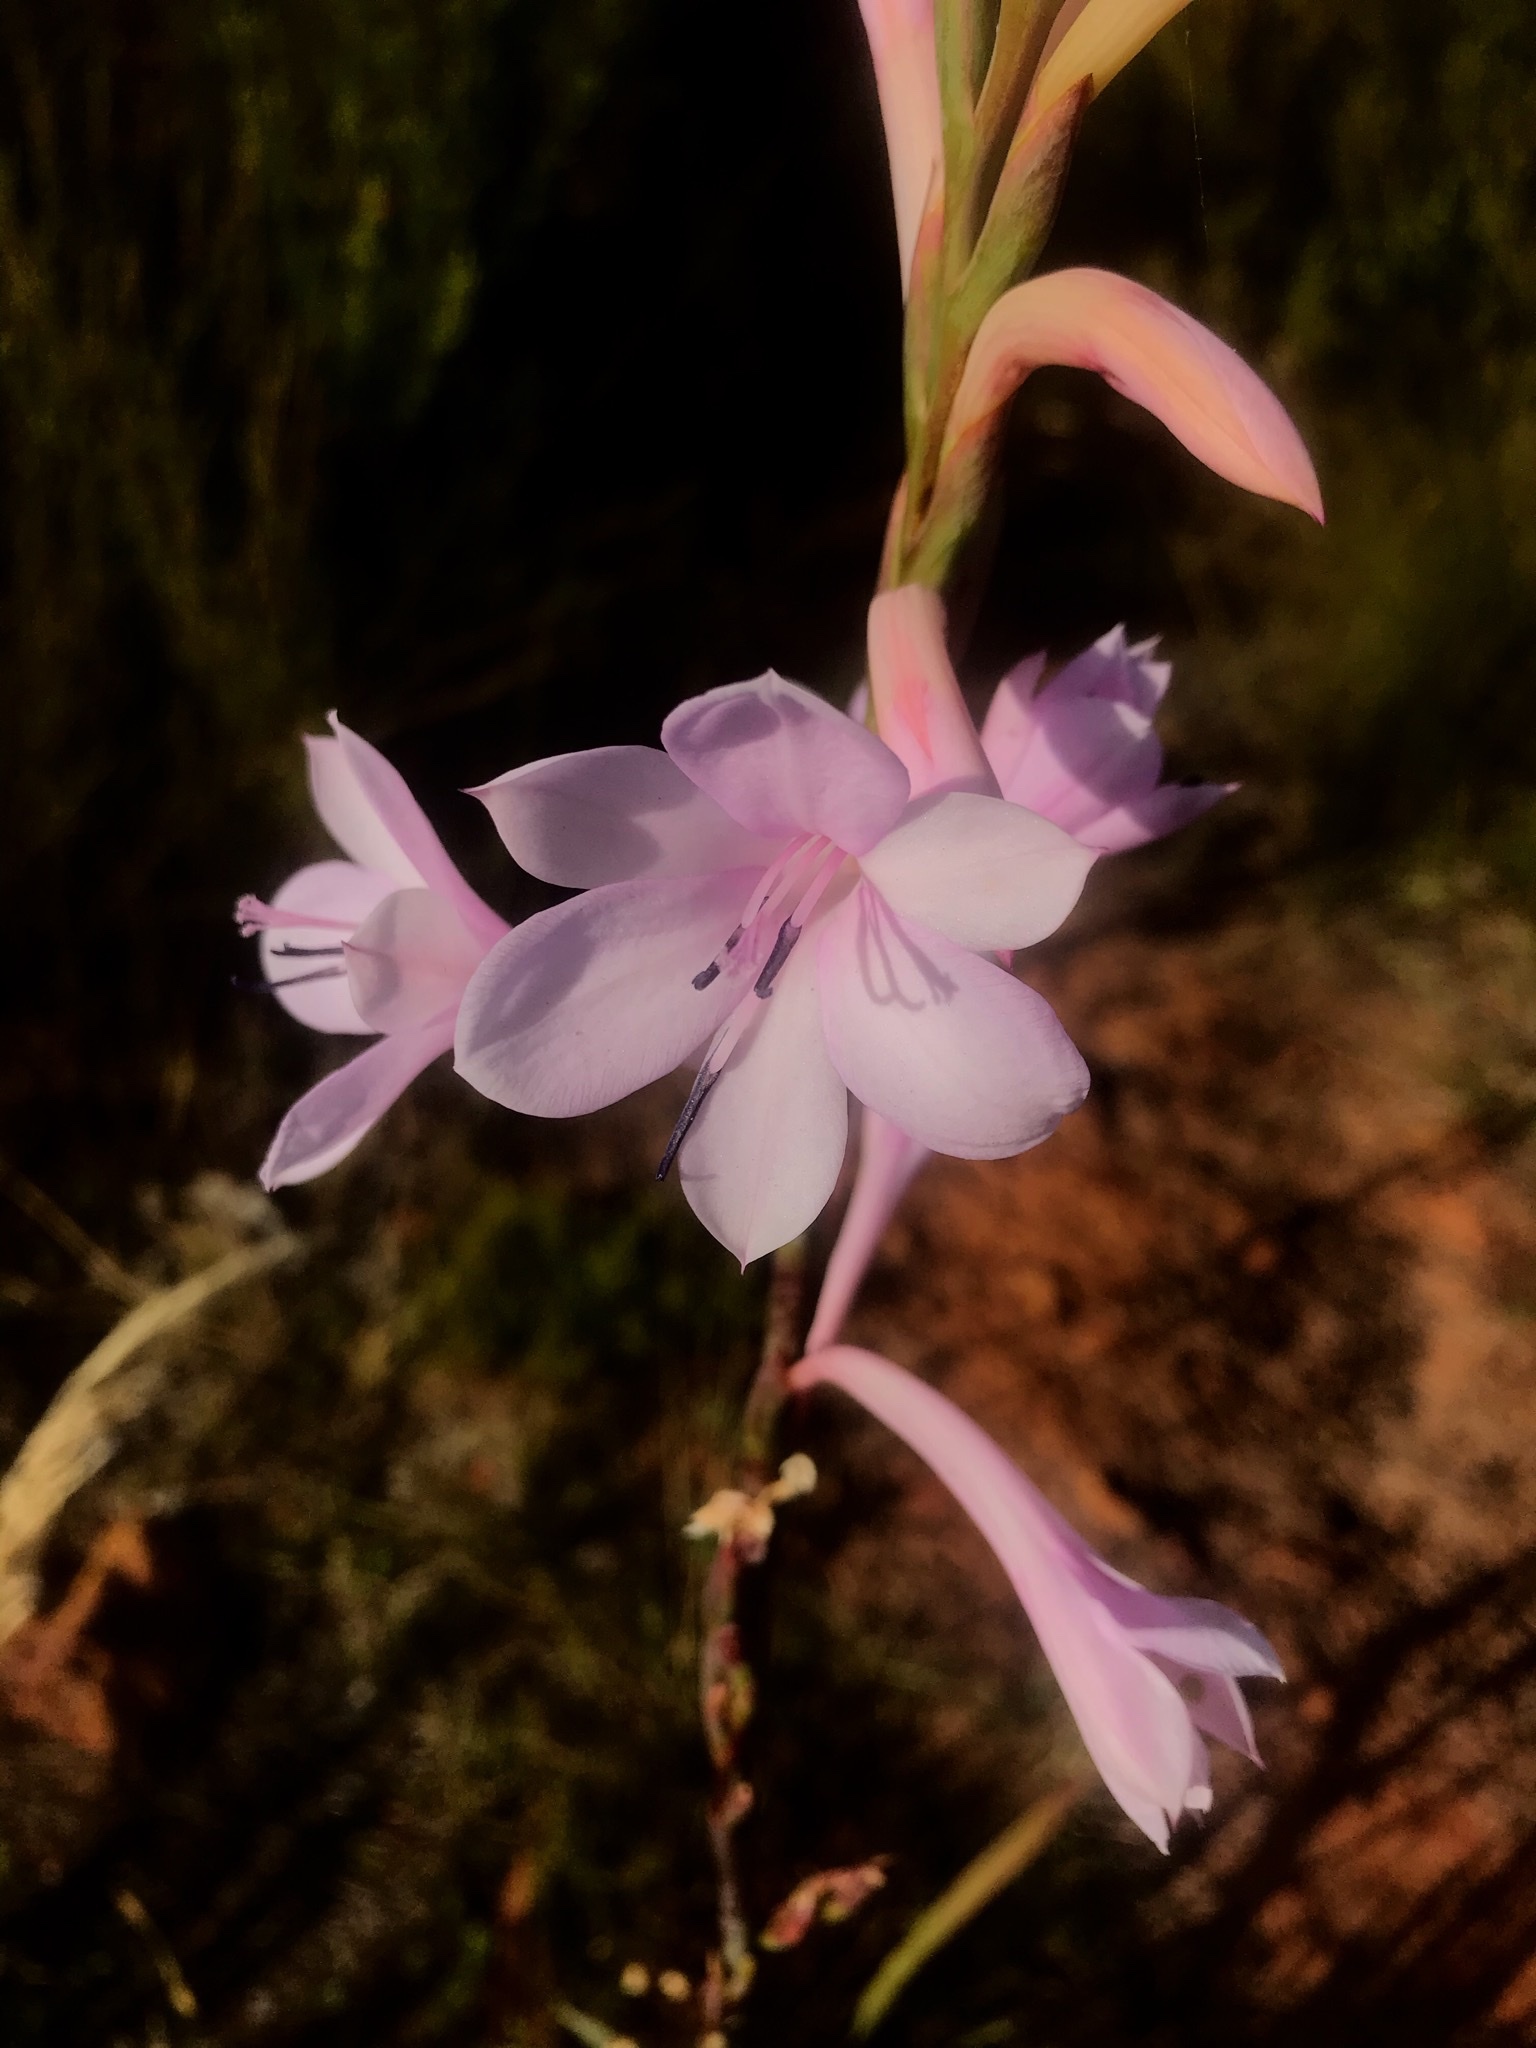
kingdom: Plantae
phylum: Tracheophyta
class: Liliopsida
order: Asparagales
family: Iridaceae
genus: Watsonia
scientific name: Watsonia knysnana
